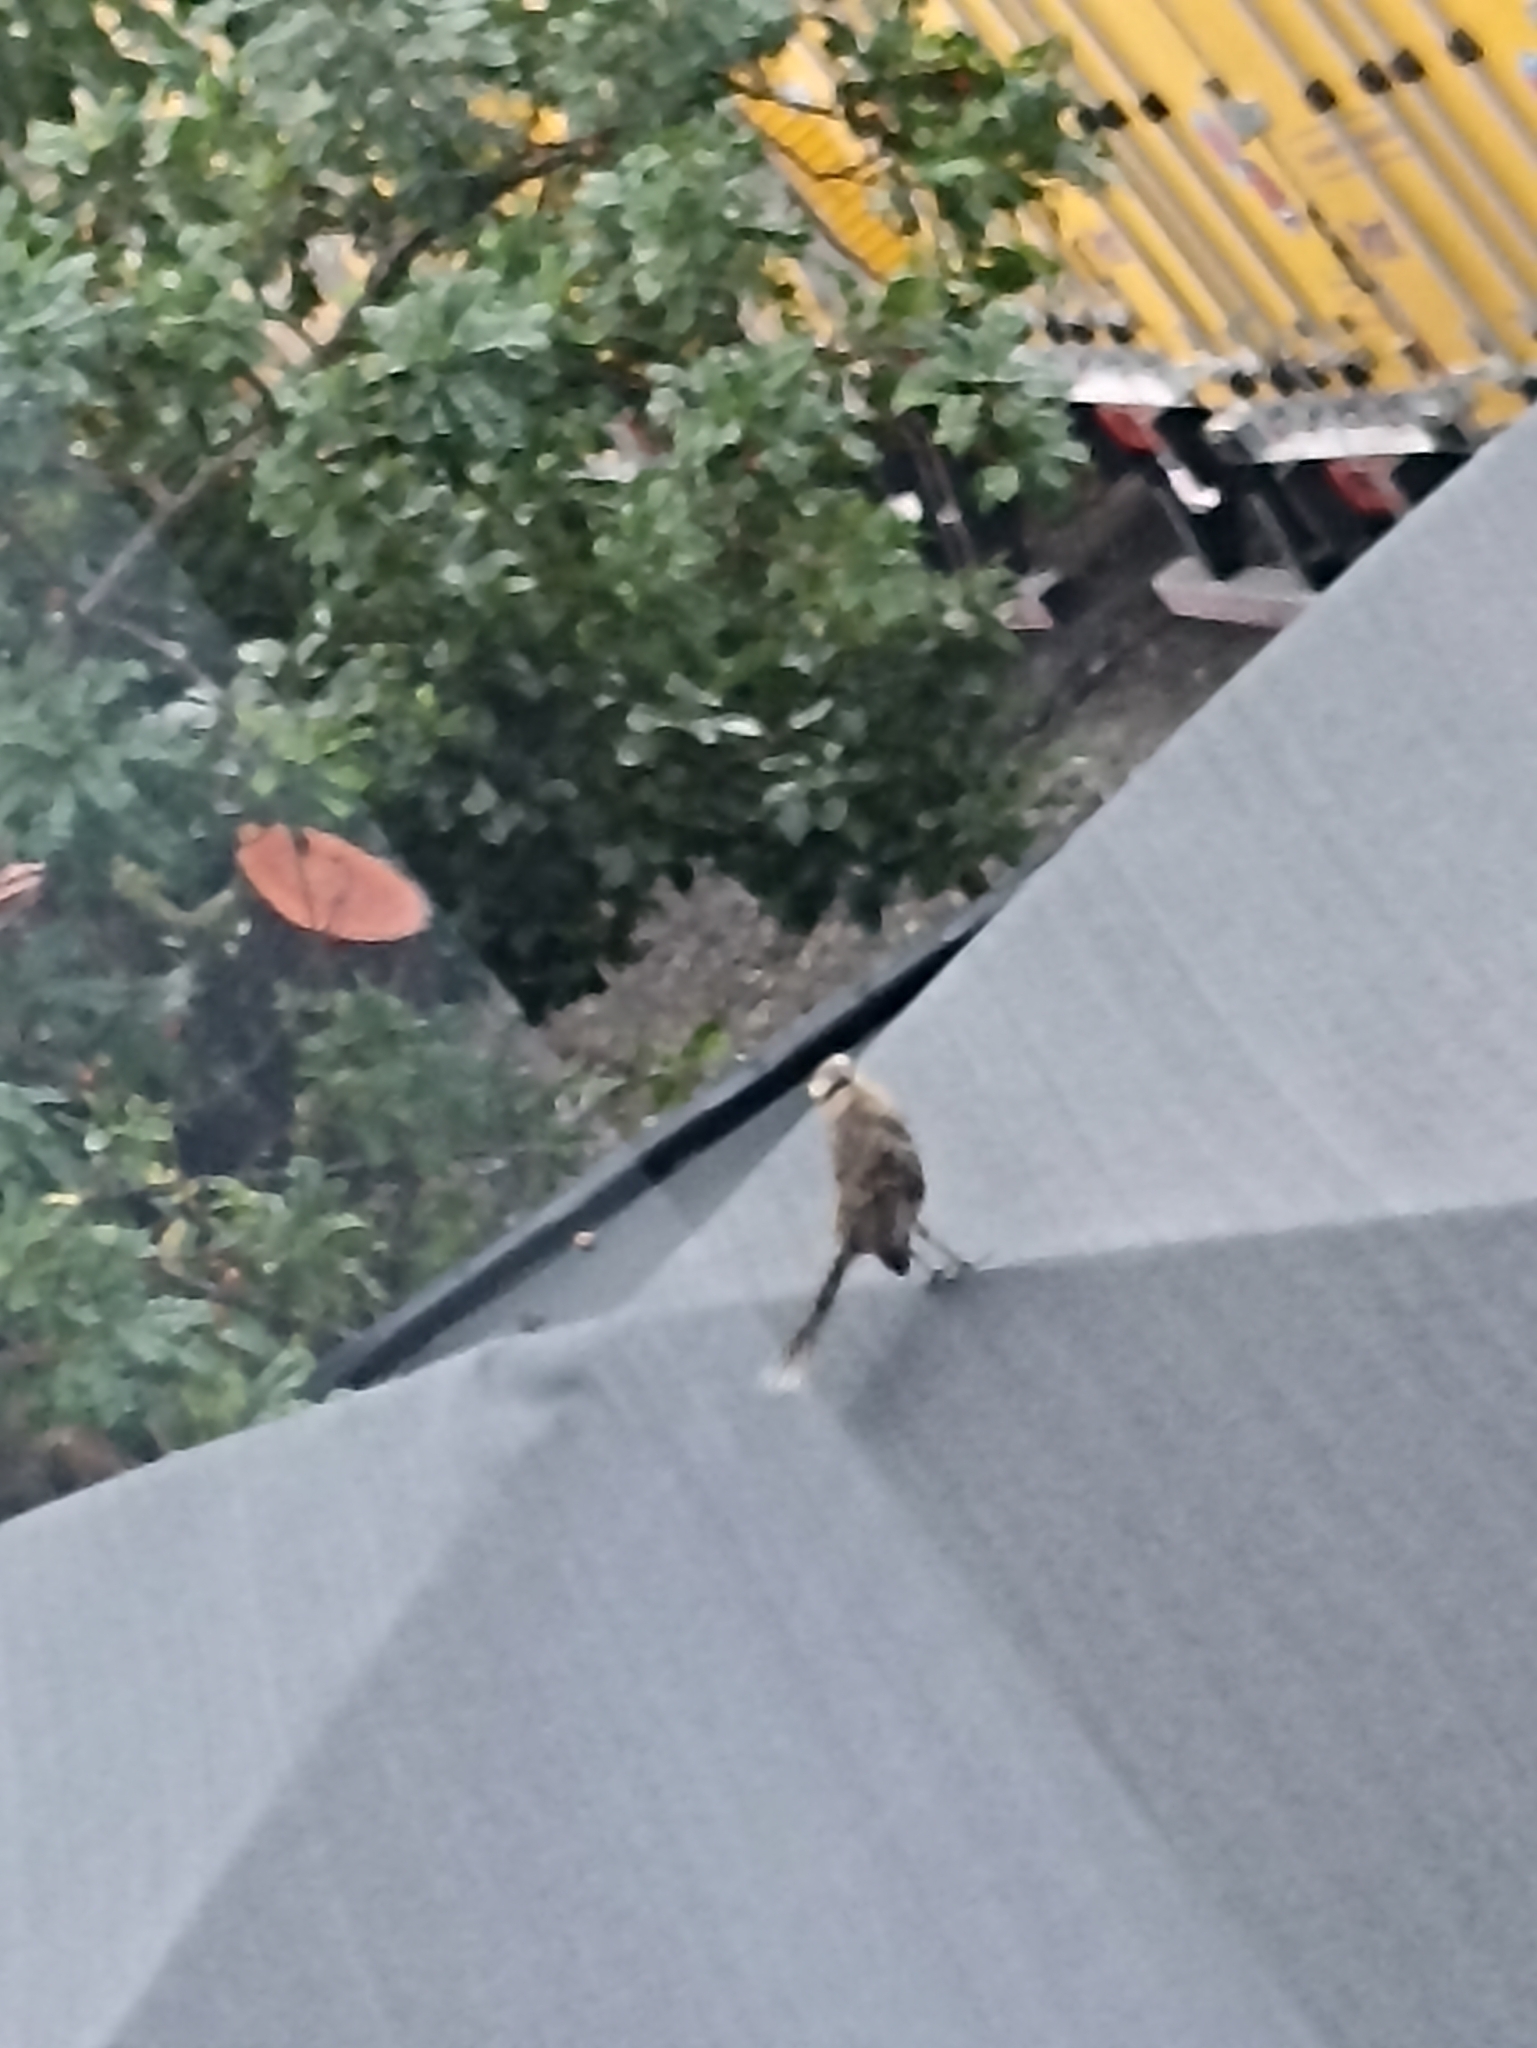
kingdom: Animalia
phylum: Chordata
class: Aves
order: Passeriformes
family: Mimidae
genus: Mimus
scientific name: Mimus saturninus
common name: Chalk-browed mockingbird
